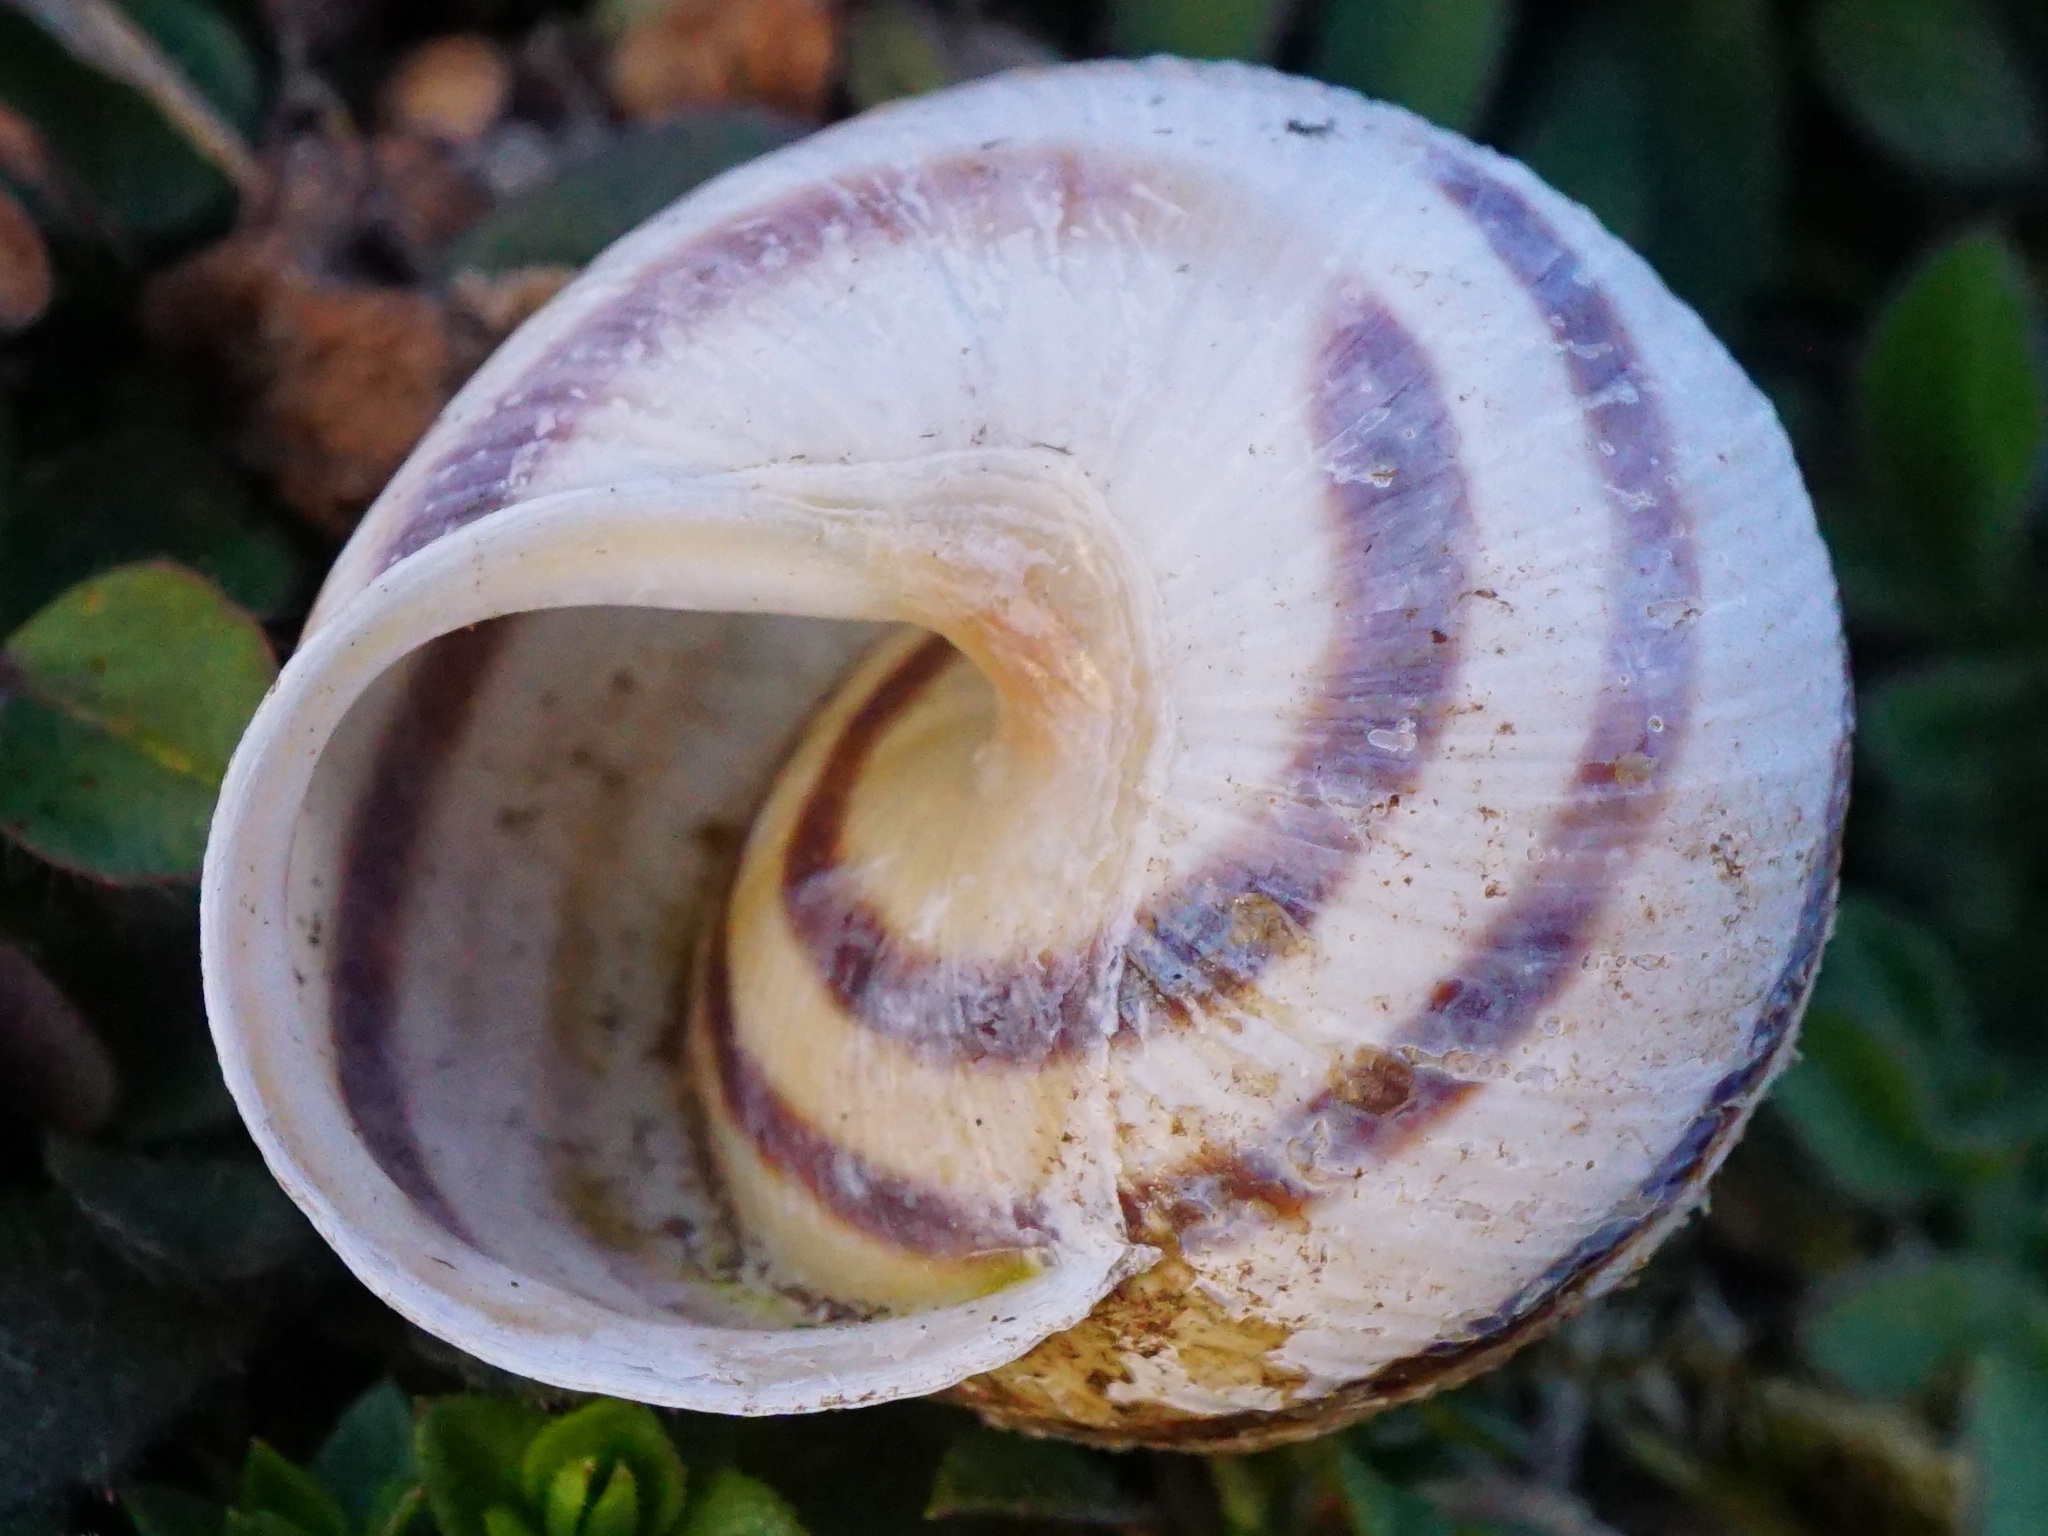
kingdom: Animalia
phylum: Mollusca
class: Gastropoda
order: Stylommatophora
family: Helicidae
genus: Caucasotachea
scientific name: Caucasotachea vindobonensis
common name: European helicid land snail
